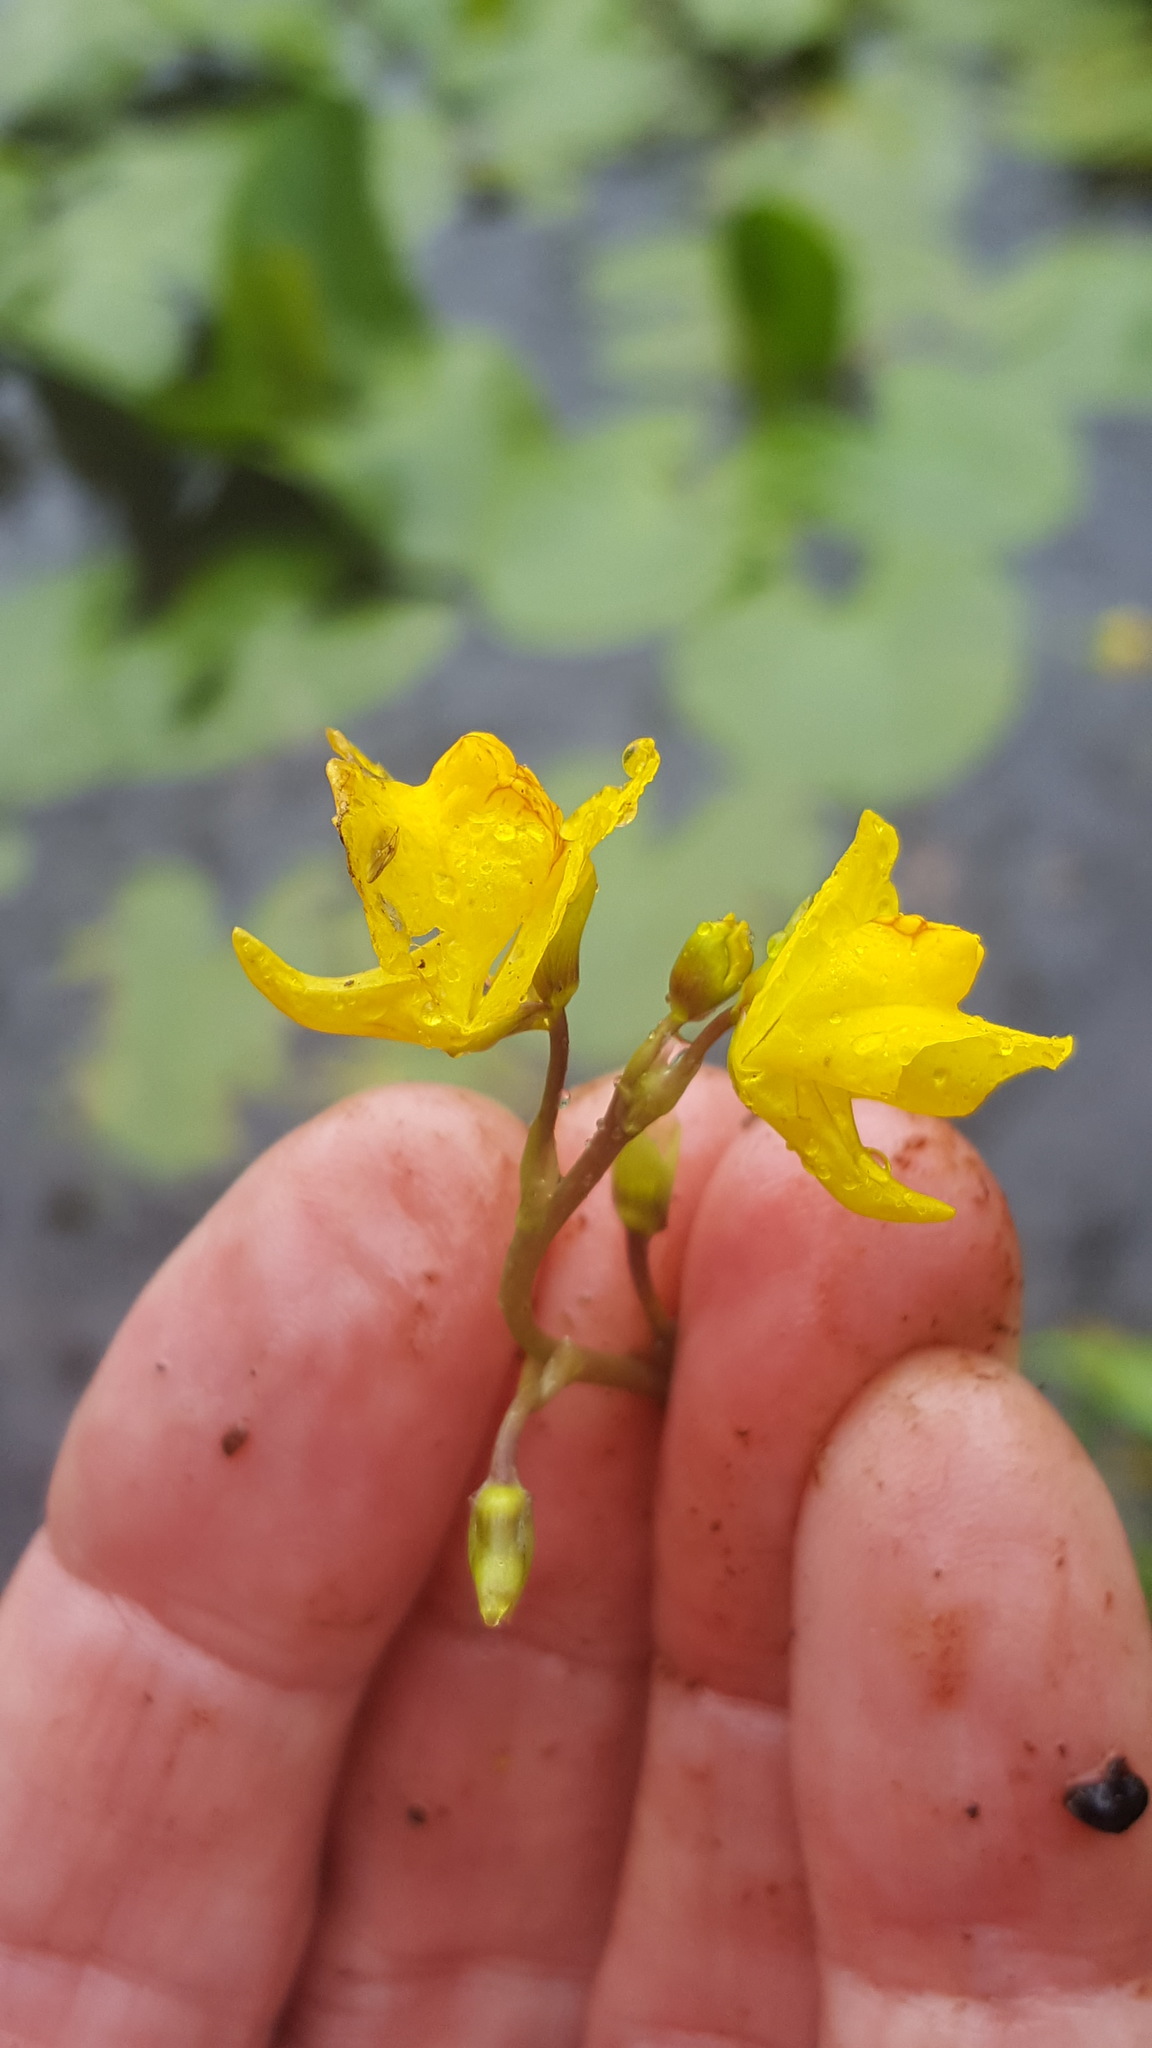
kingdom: Plantae
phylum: Tracheophyta
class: Magnoliopsida
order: Lamiales
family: Lentibulariaceae
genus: Utricularia
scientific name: Utricularia macrorhiza
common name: Common bladderwort
